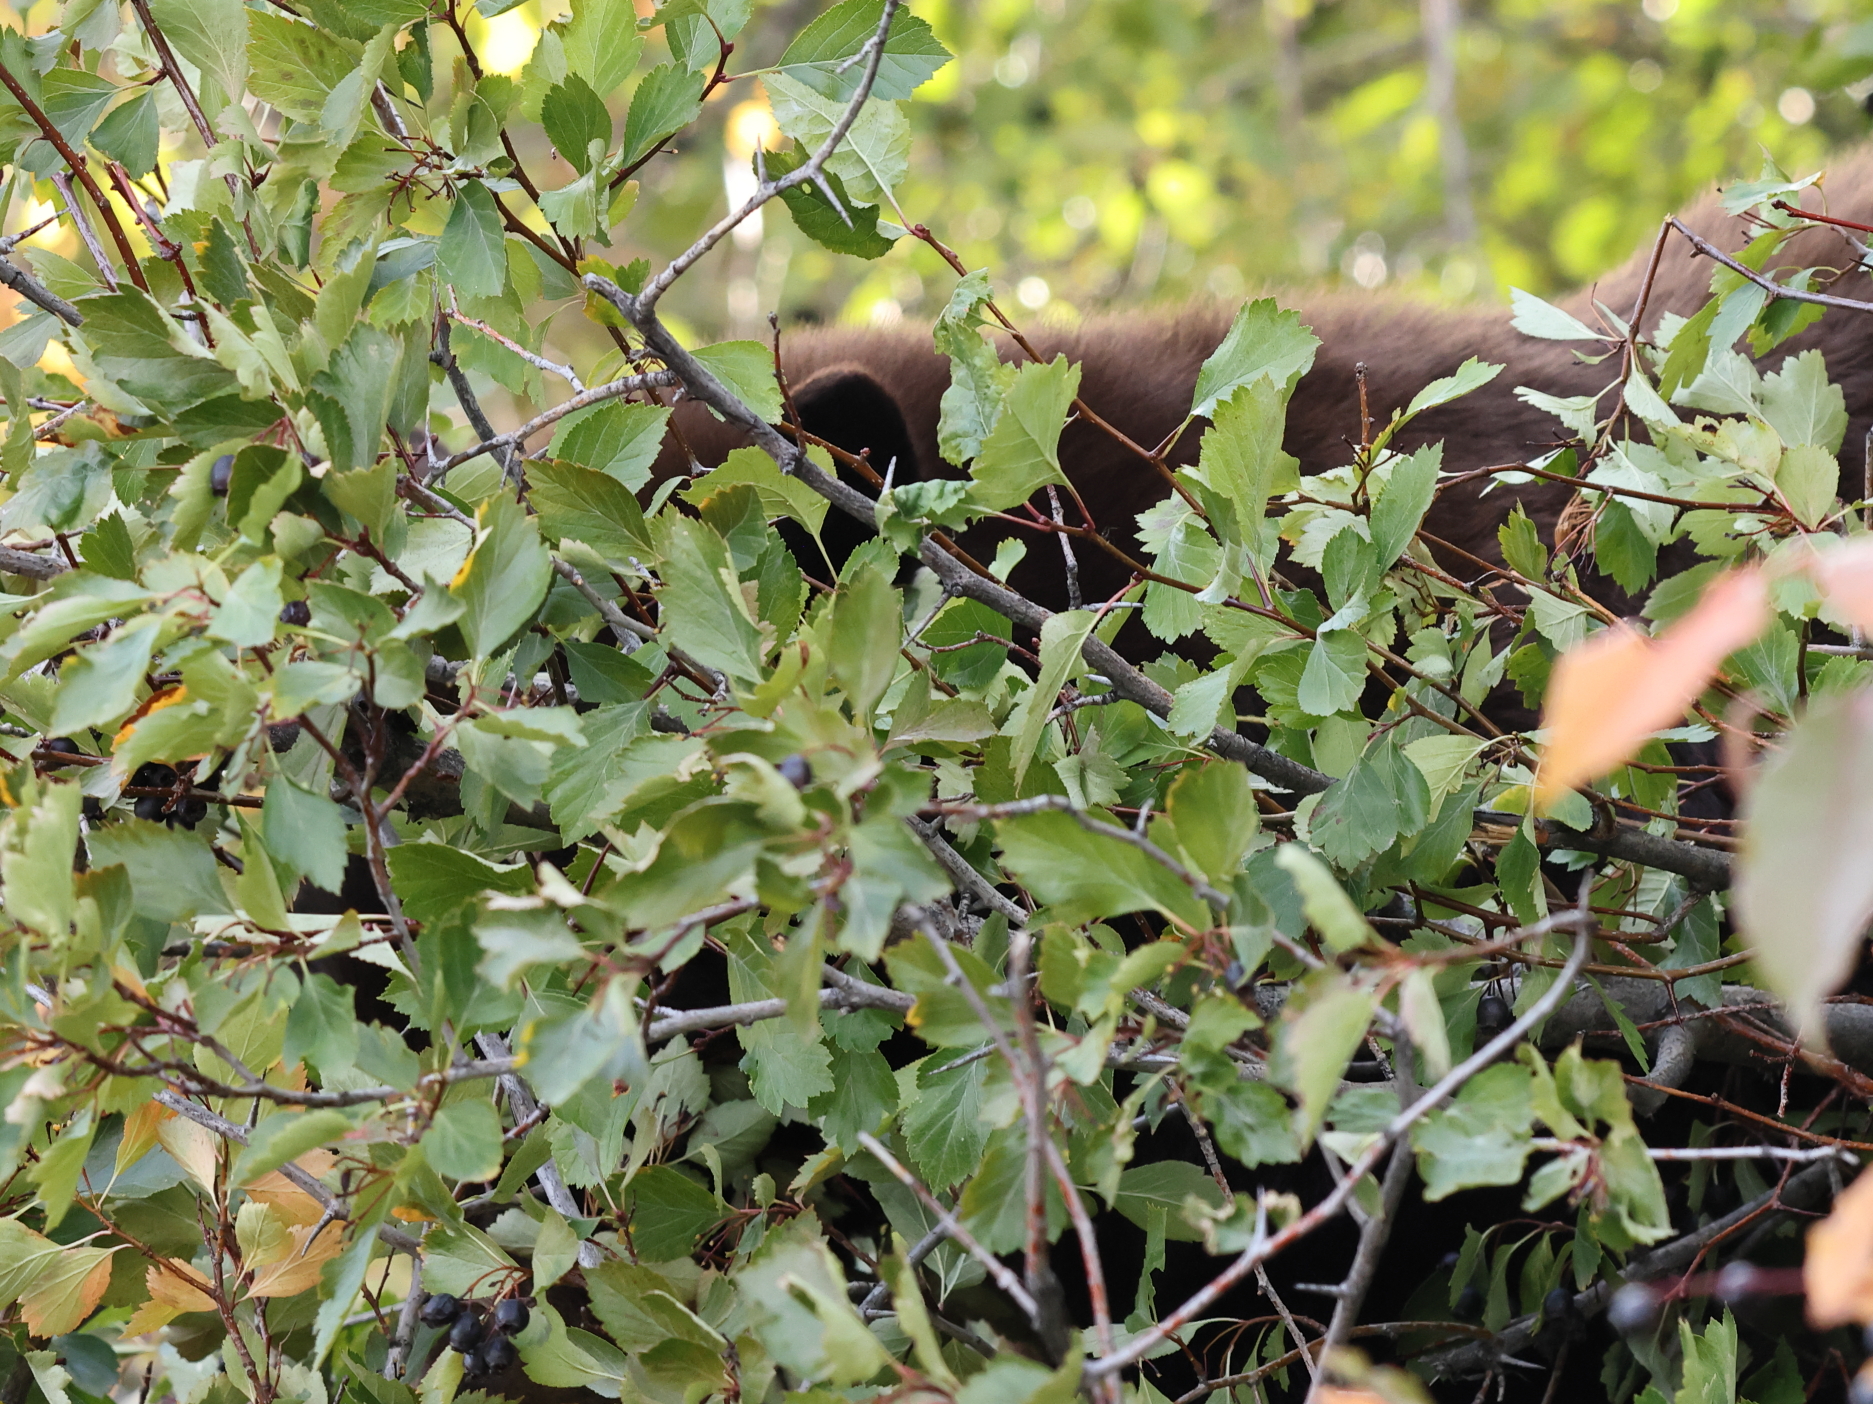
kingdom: Animalia
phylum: Chordata
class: Mammalia
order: Carnivora
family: Ursidae
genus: Ursus
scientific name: Ursus americanus
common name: American black bear
